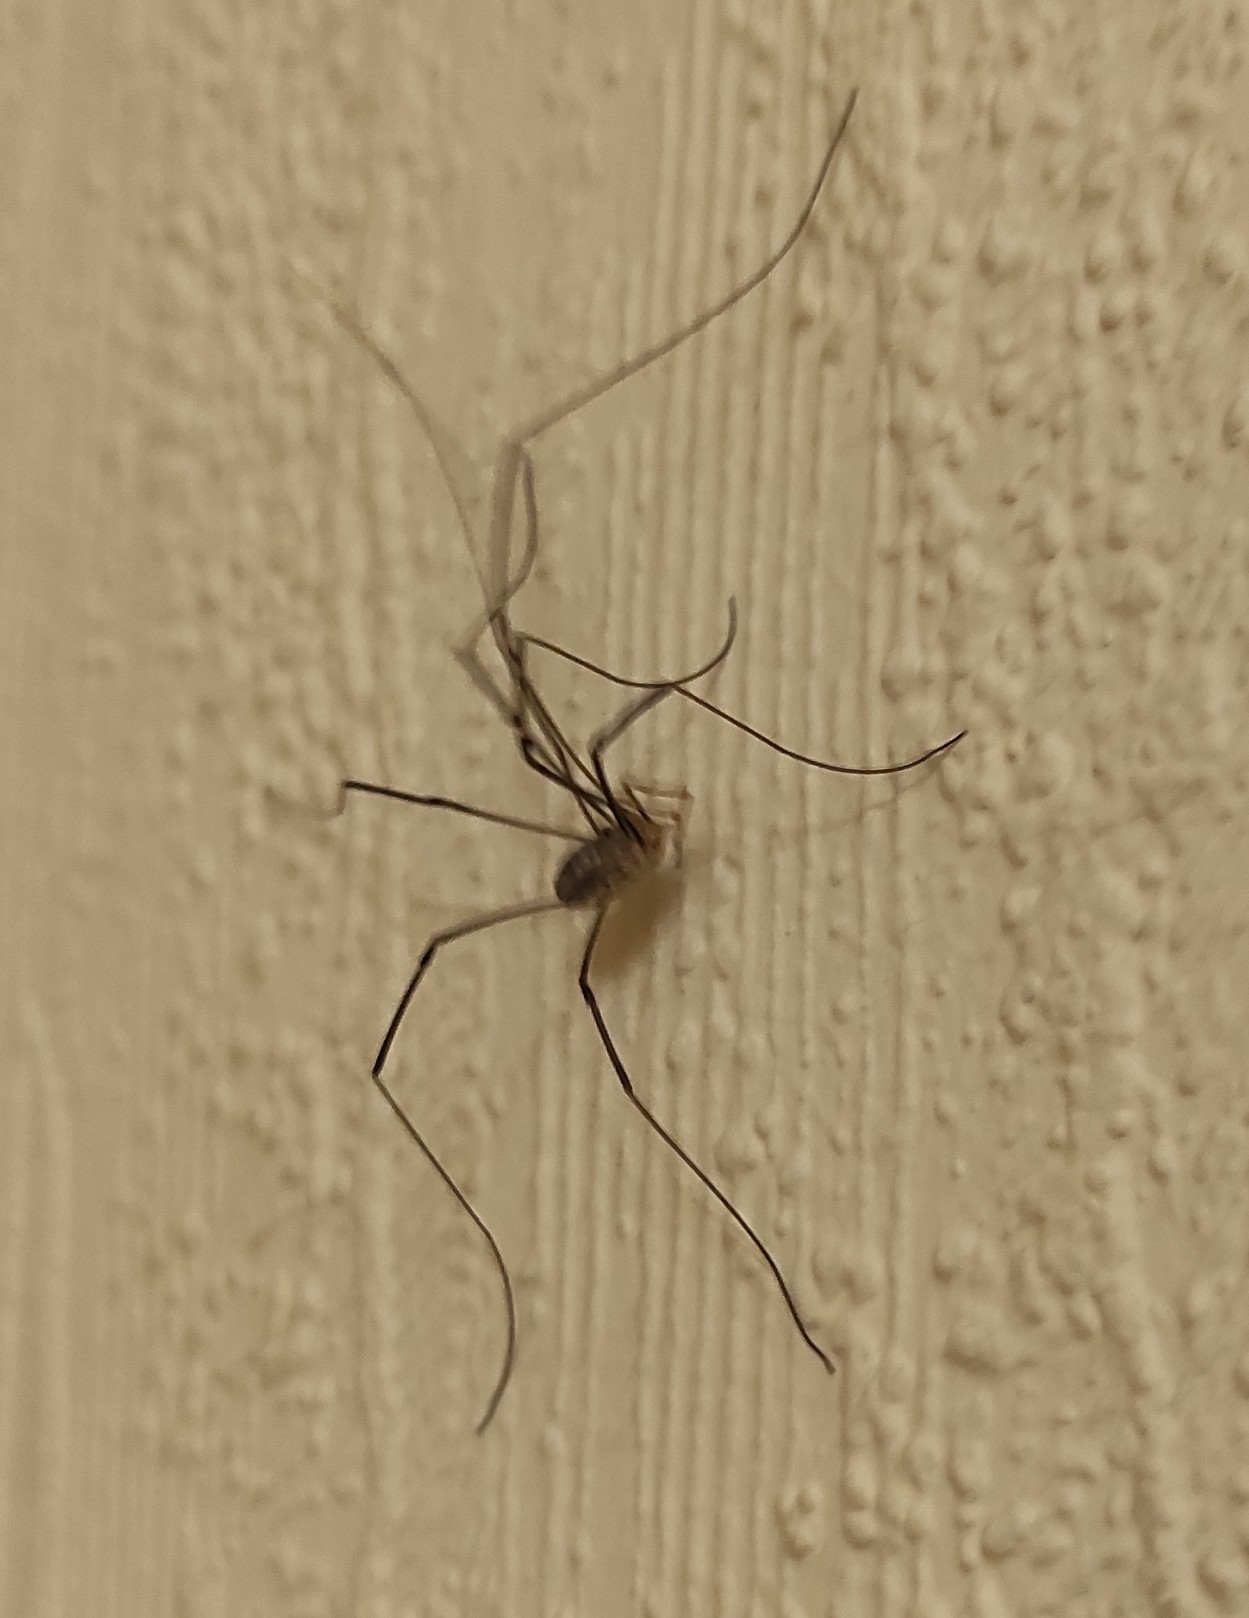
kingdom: Animalia
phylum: Arthropoda
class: Arachnida
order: Opiliones
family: Phalangiidae
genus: Phalangium
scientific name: Phalangium opilio
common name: Daddy longleg
